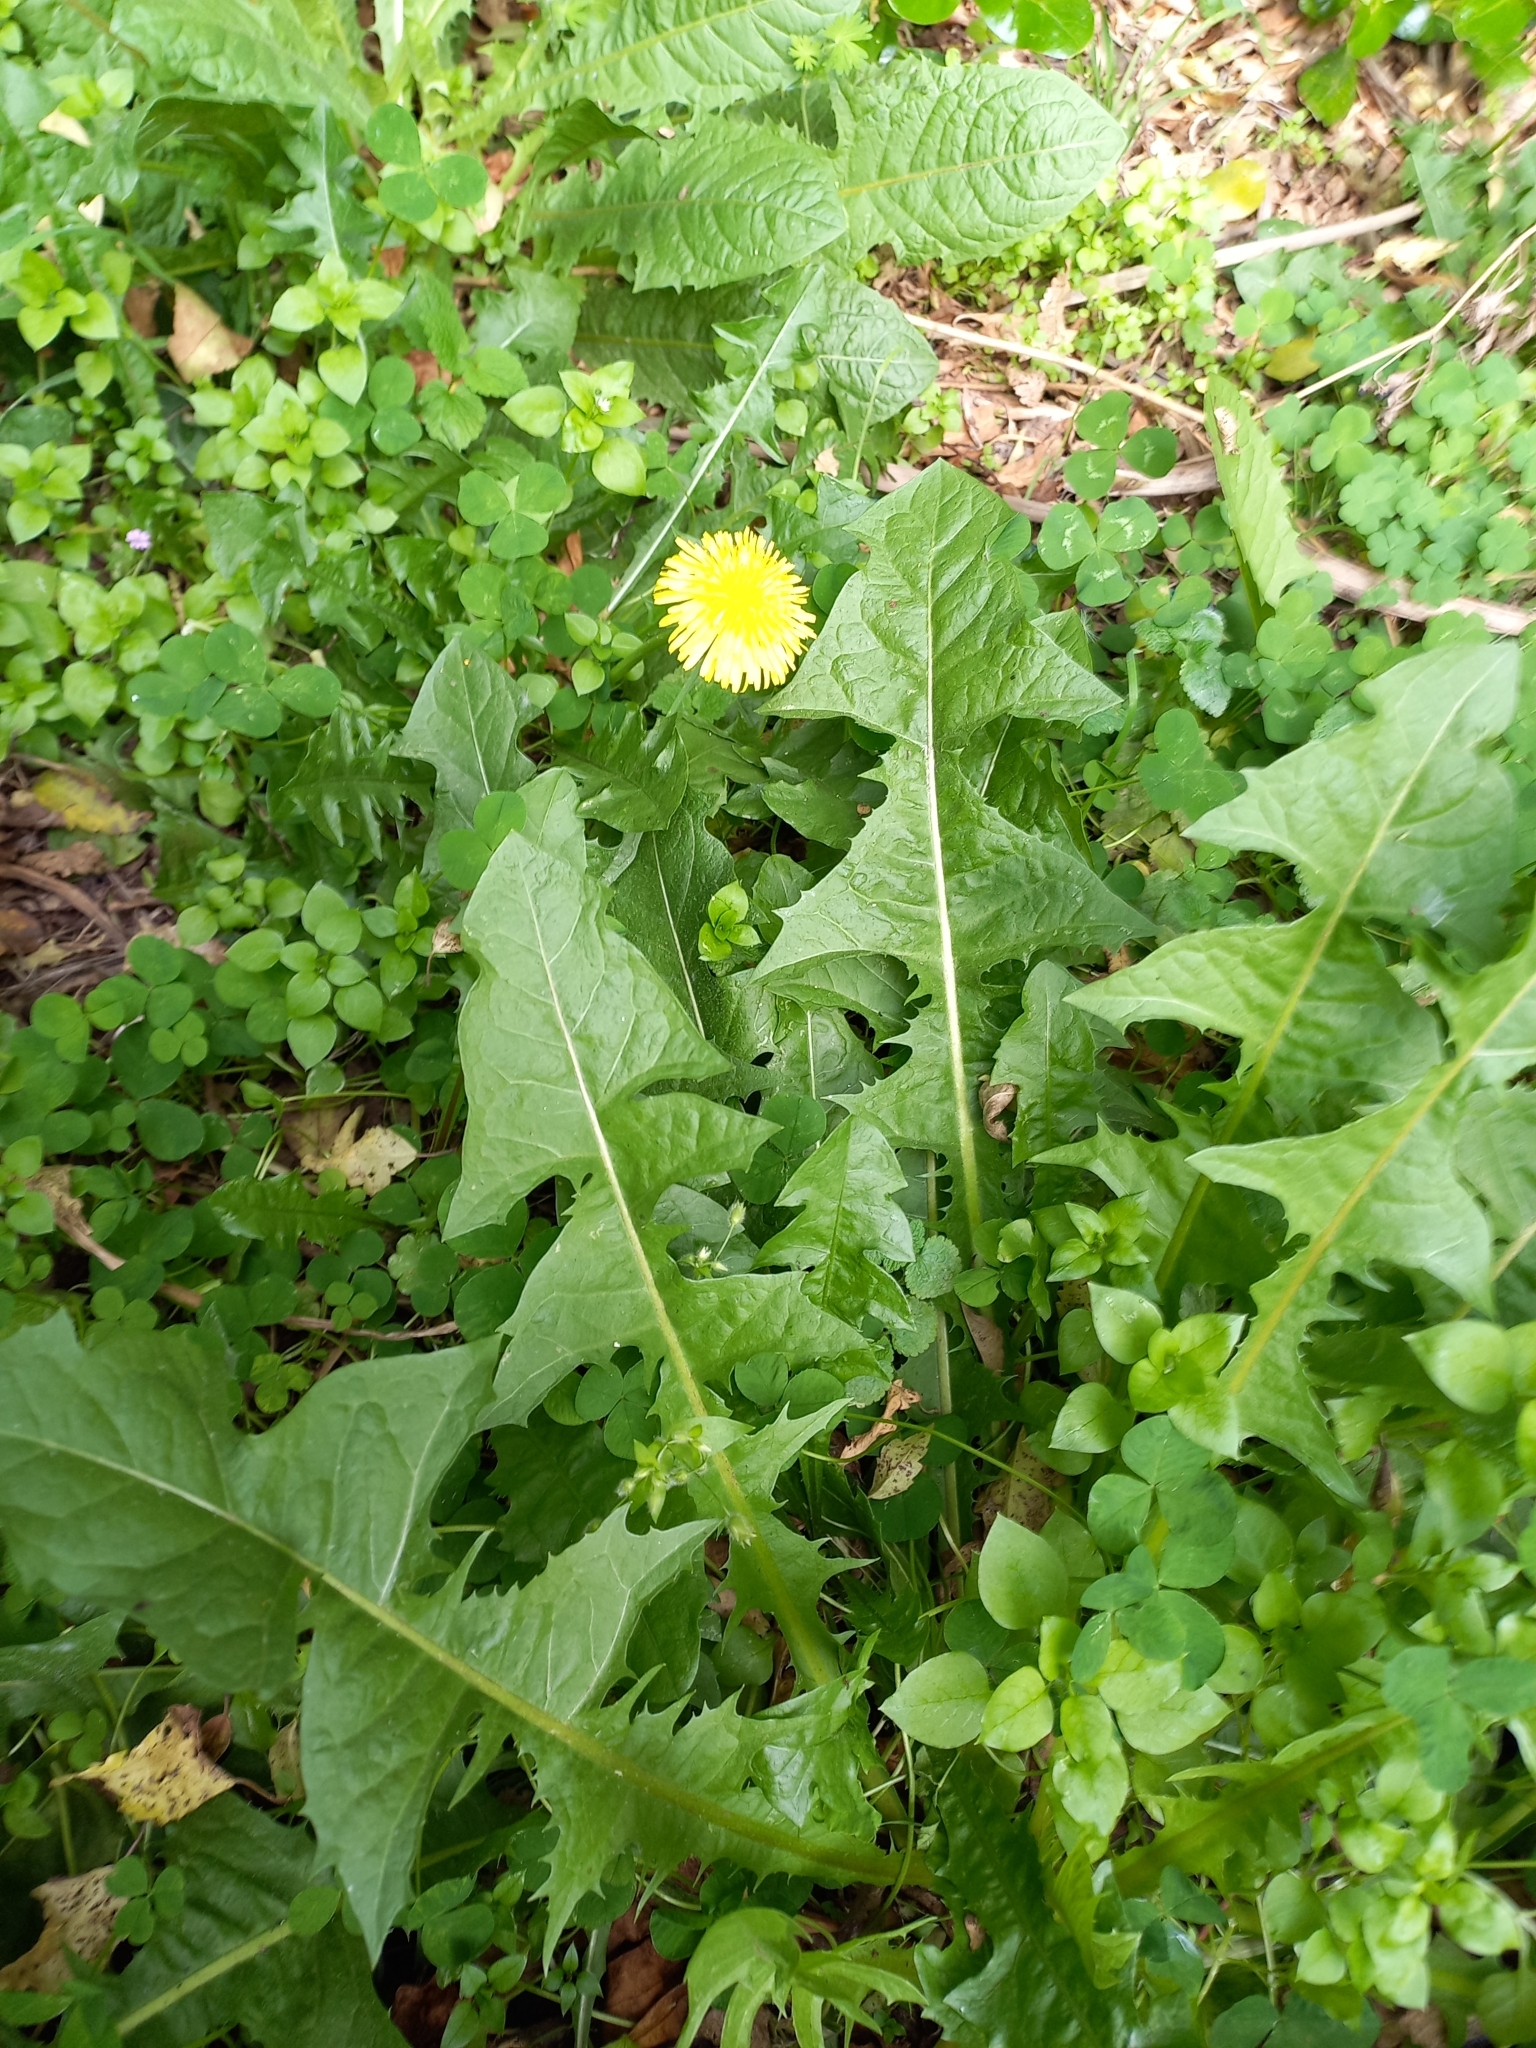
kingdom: Plantae
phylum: Tracheophyta
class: Magnoliopsida
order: Asterales
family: Asteraceae
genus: Taraxacum
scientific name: Taraxacum officinale
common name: Common dandelion
